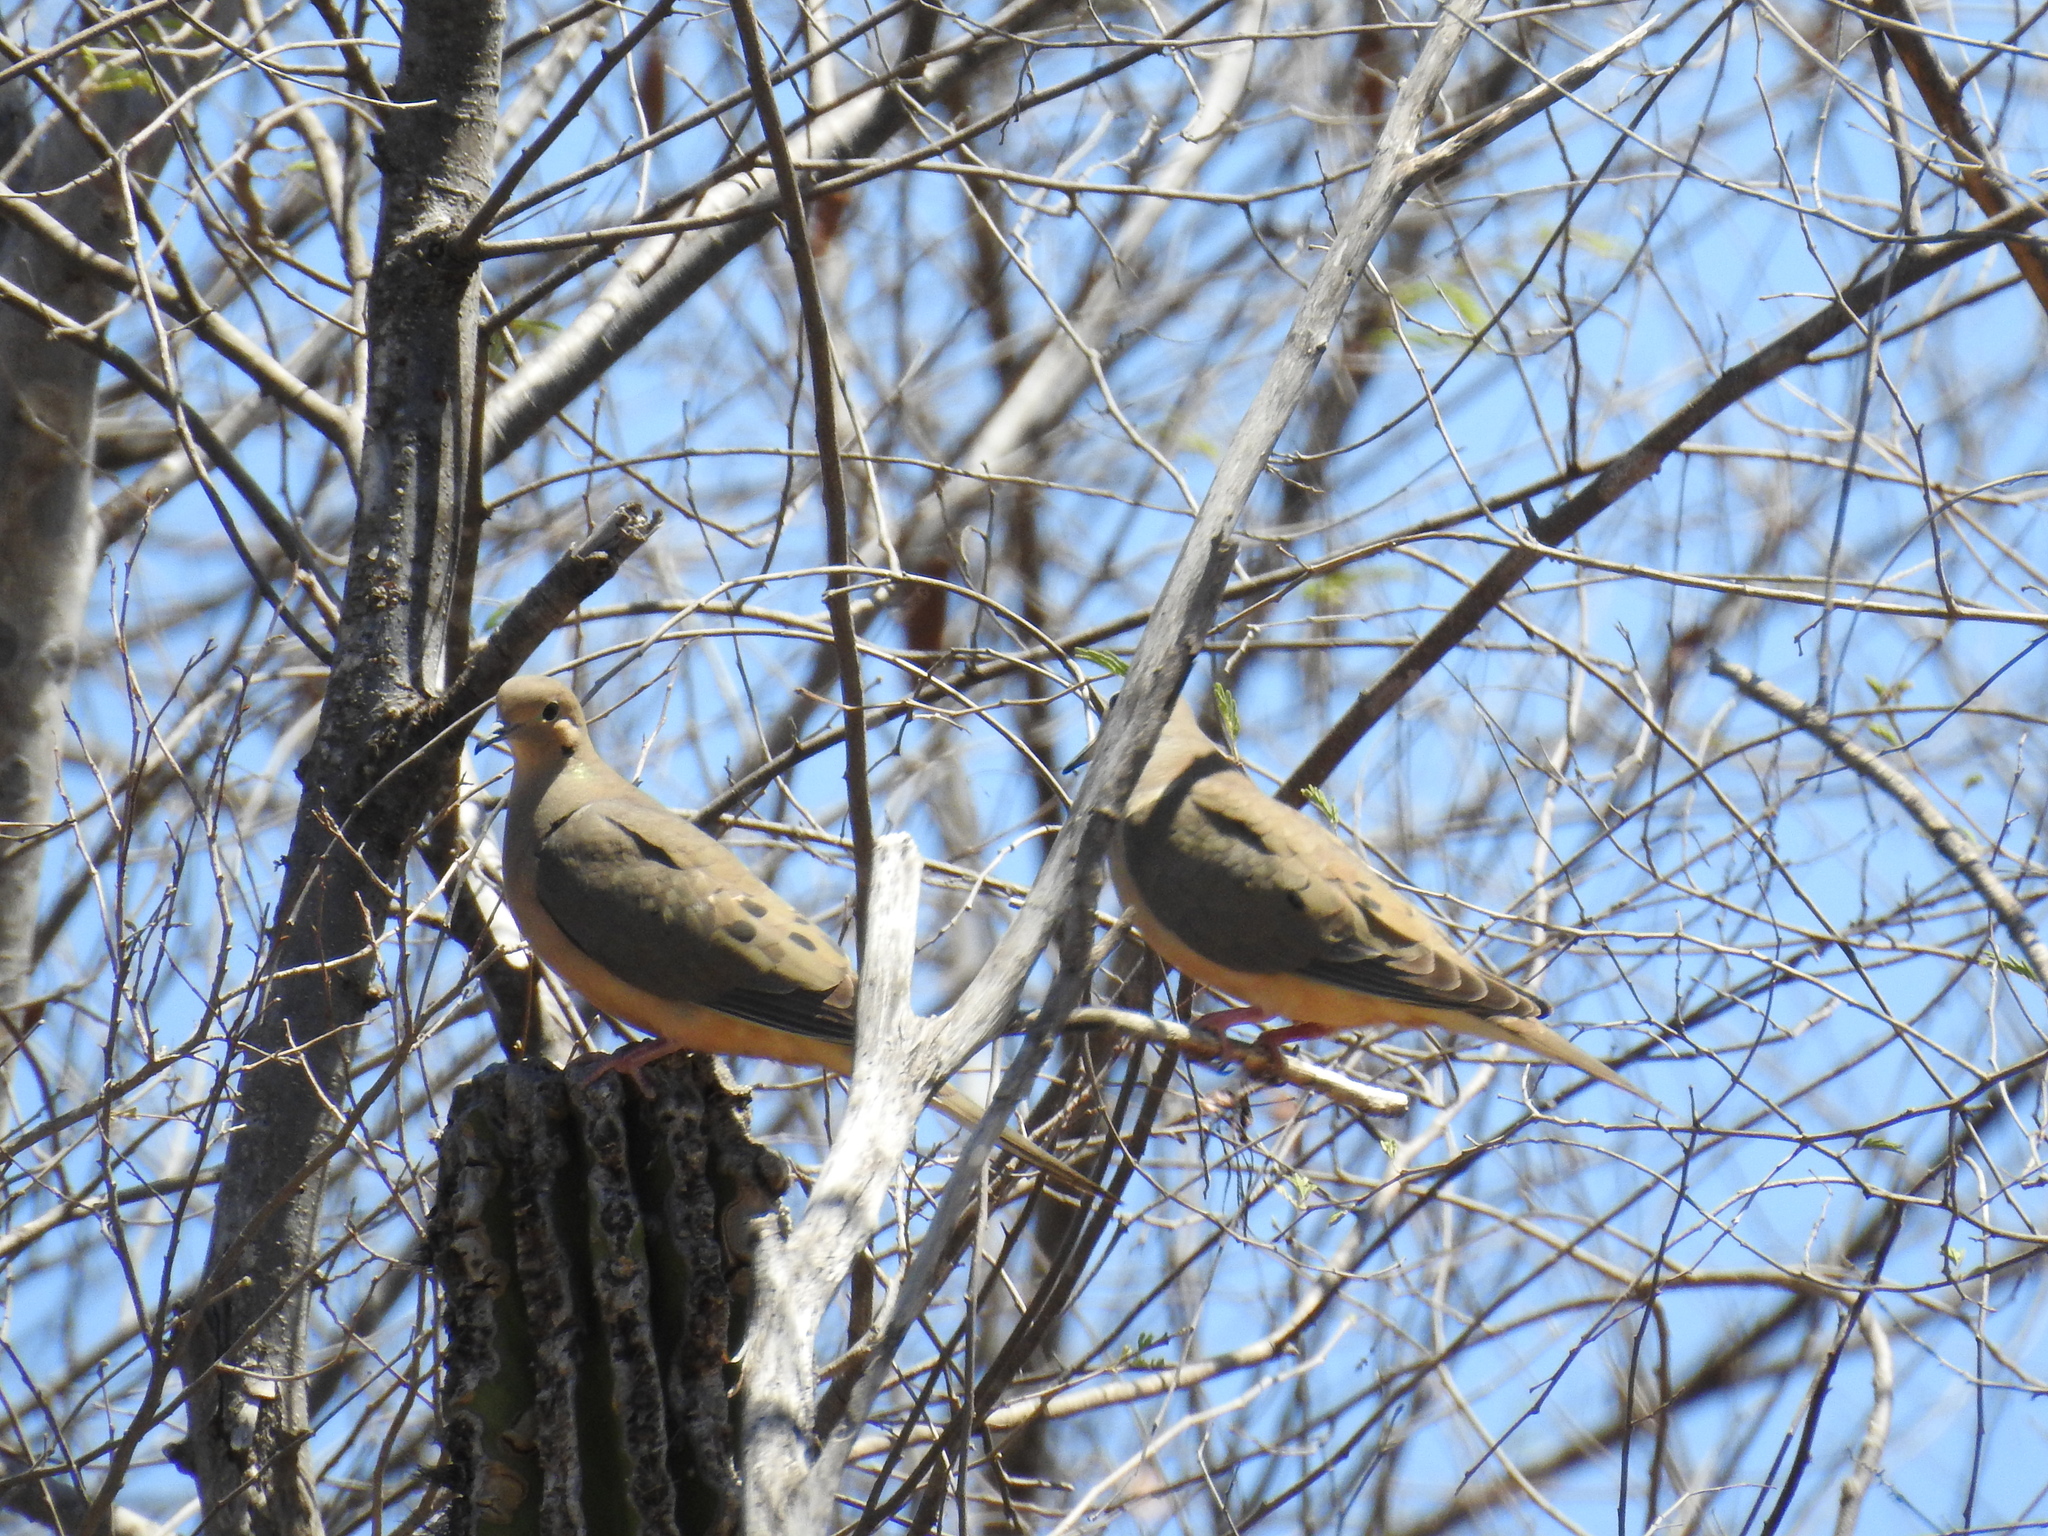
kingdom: Animalia
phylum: Chordata
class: Aves
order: Columbiformes
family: Columbidae
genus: Zenaida
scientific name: Zenaida macroura
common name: Mourning dove
